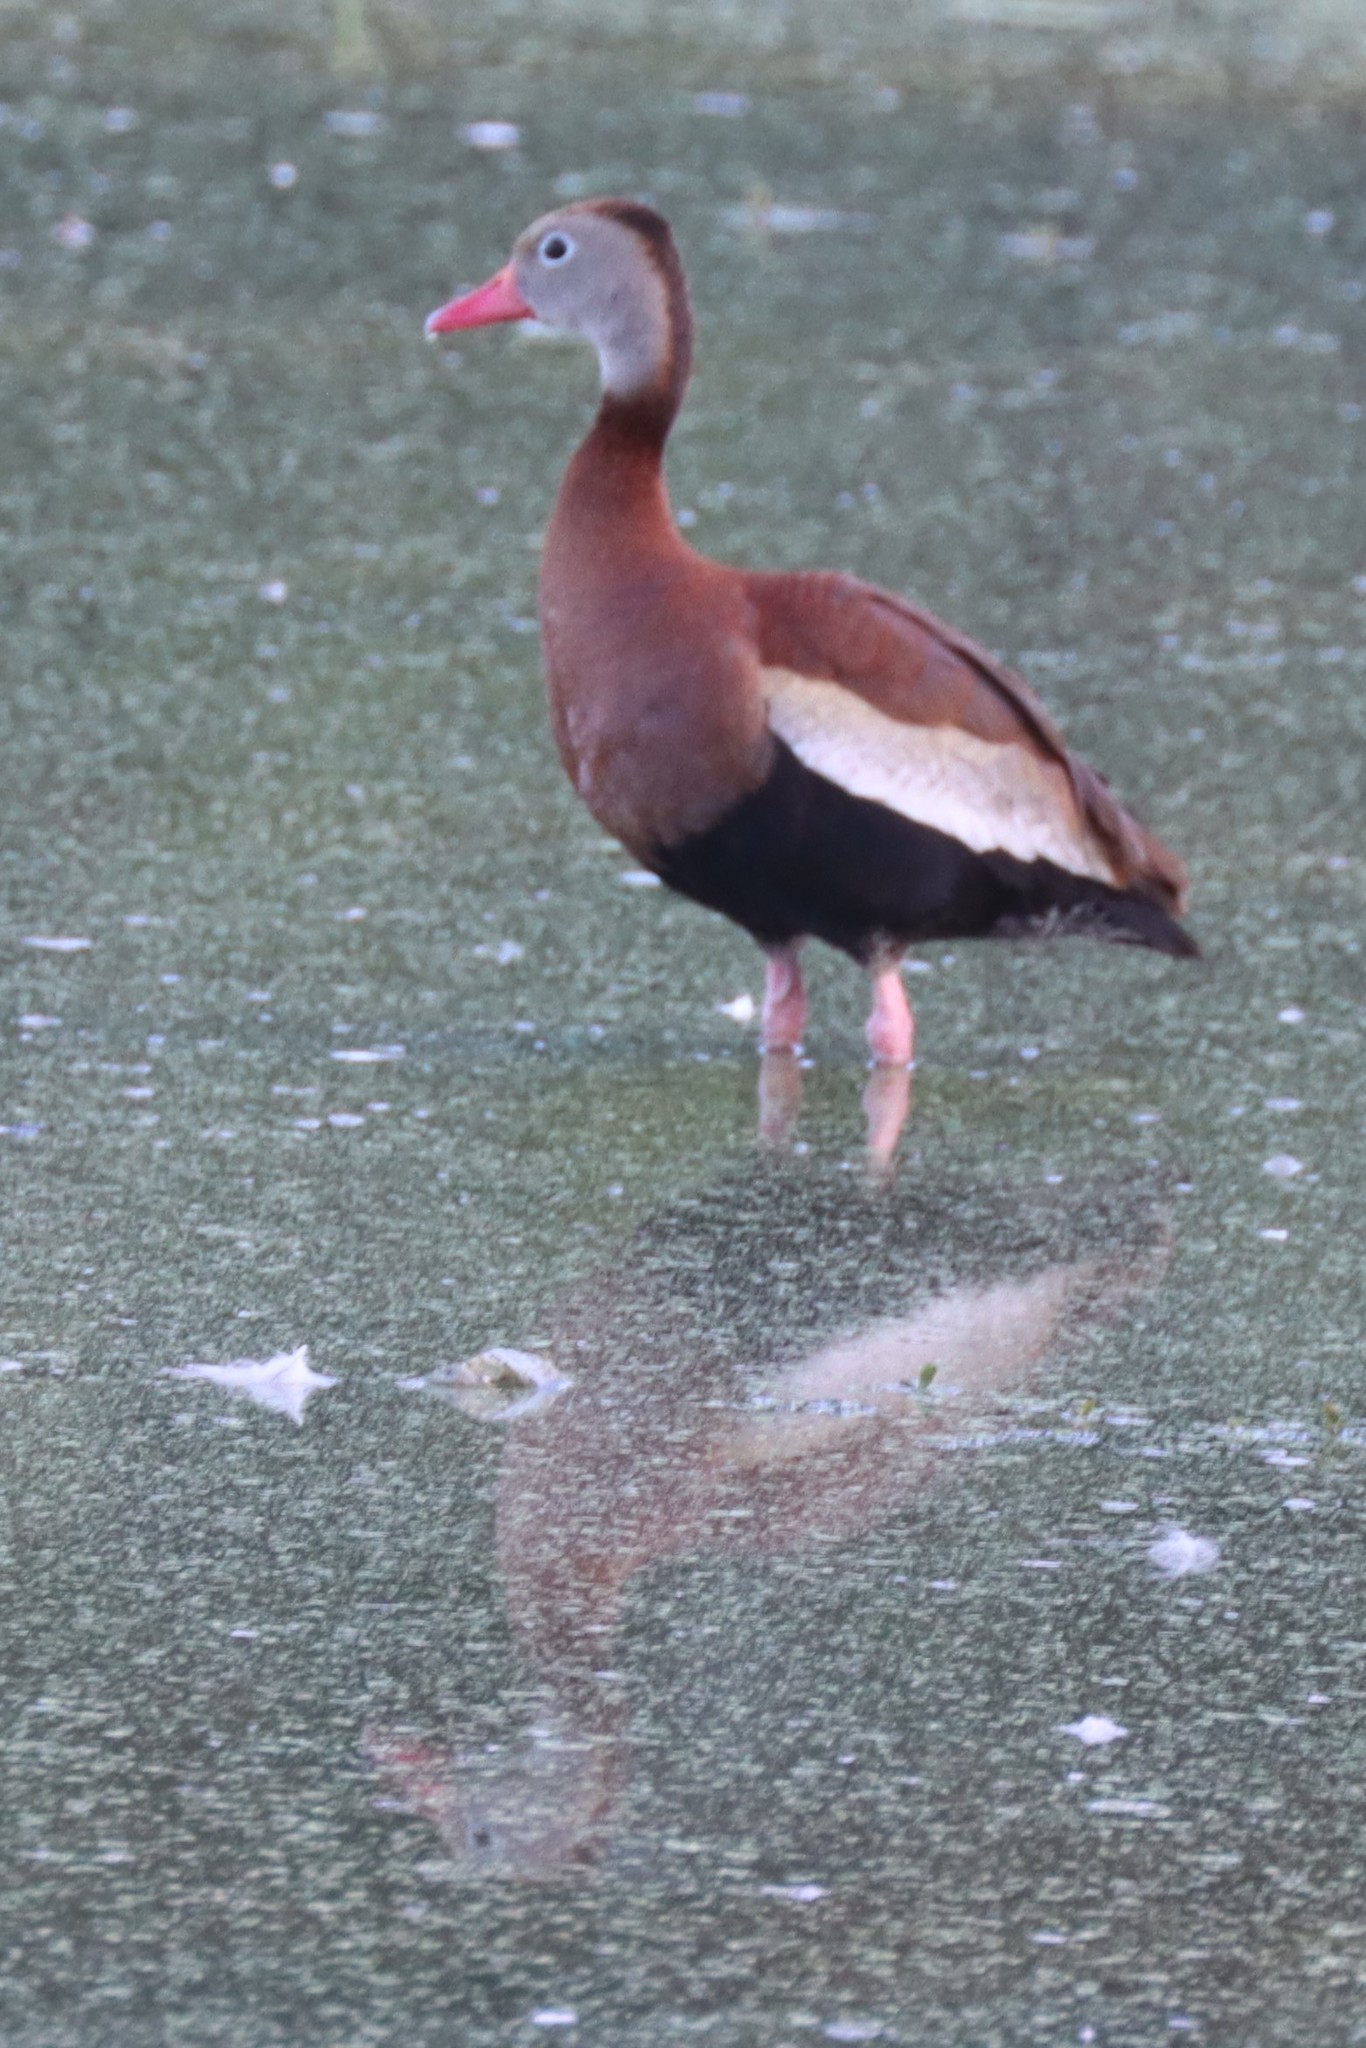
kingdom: Animalia
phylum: Chordata
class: Aves
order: Anseriformes
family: Anatidae
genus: Dendrocygna
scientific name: Dendrocygna autumnalis
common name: Black-bellied whistling duck
